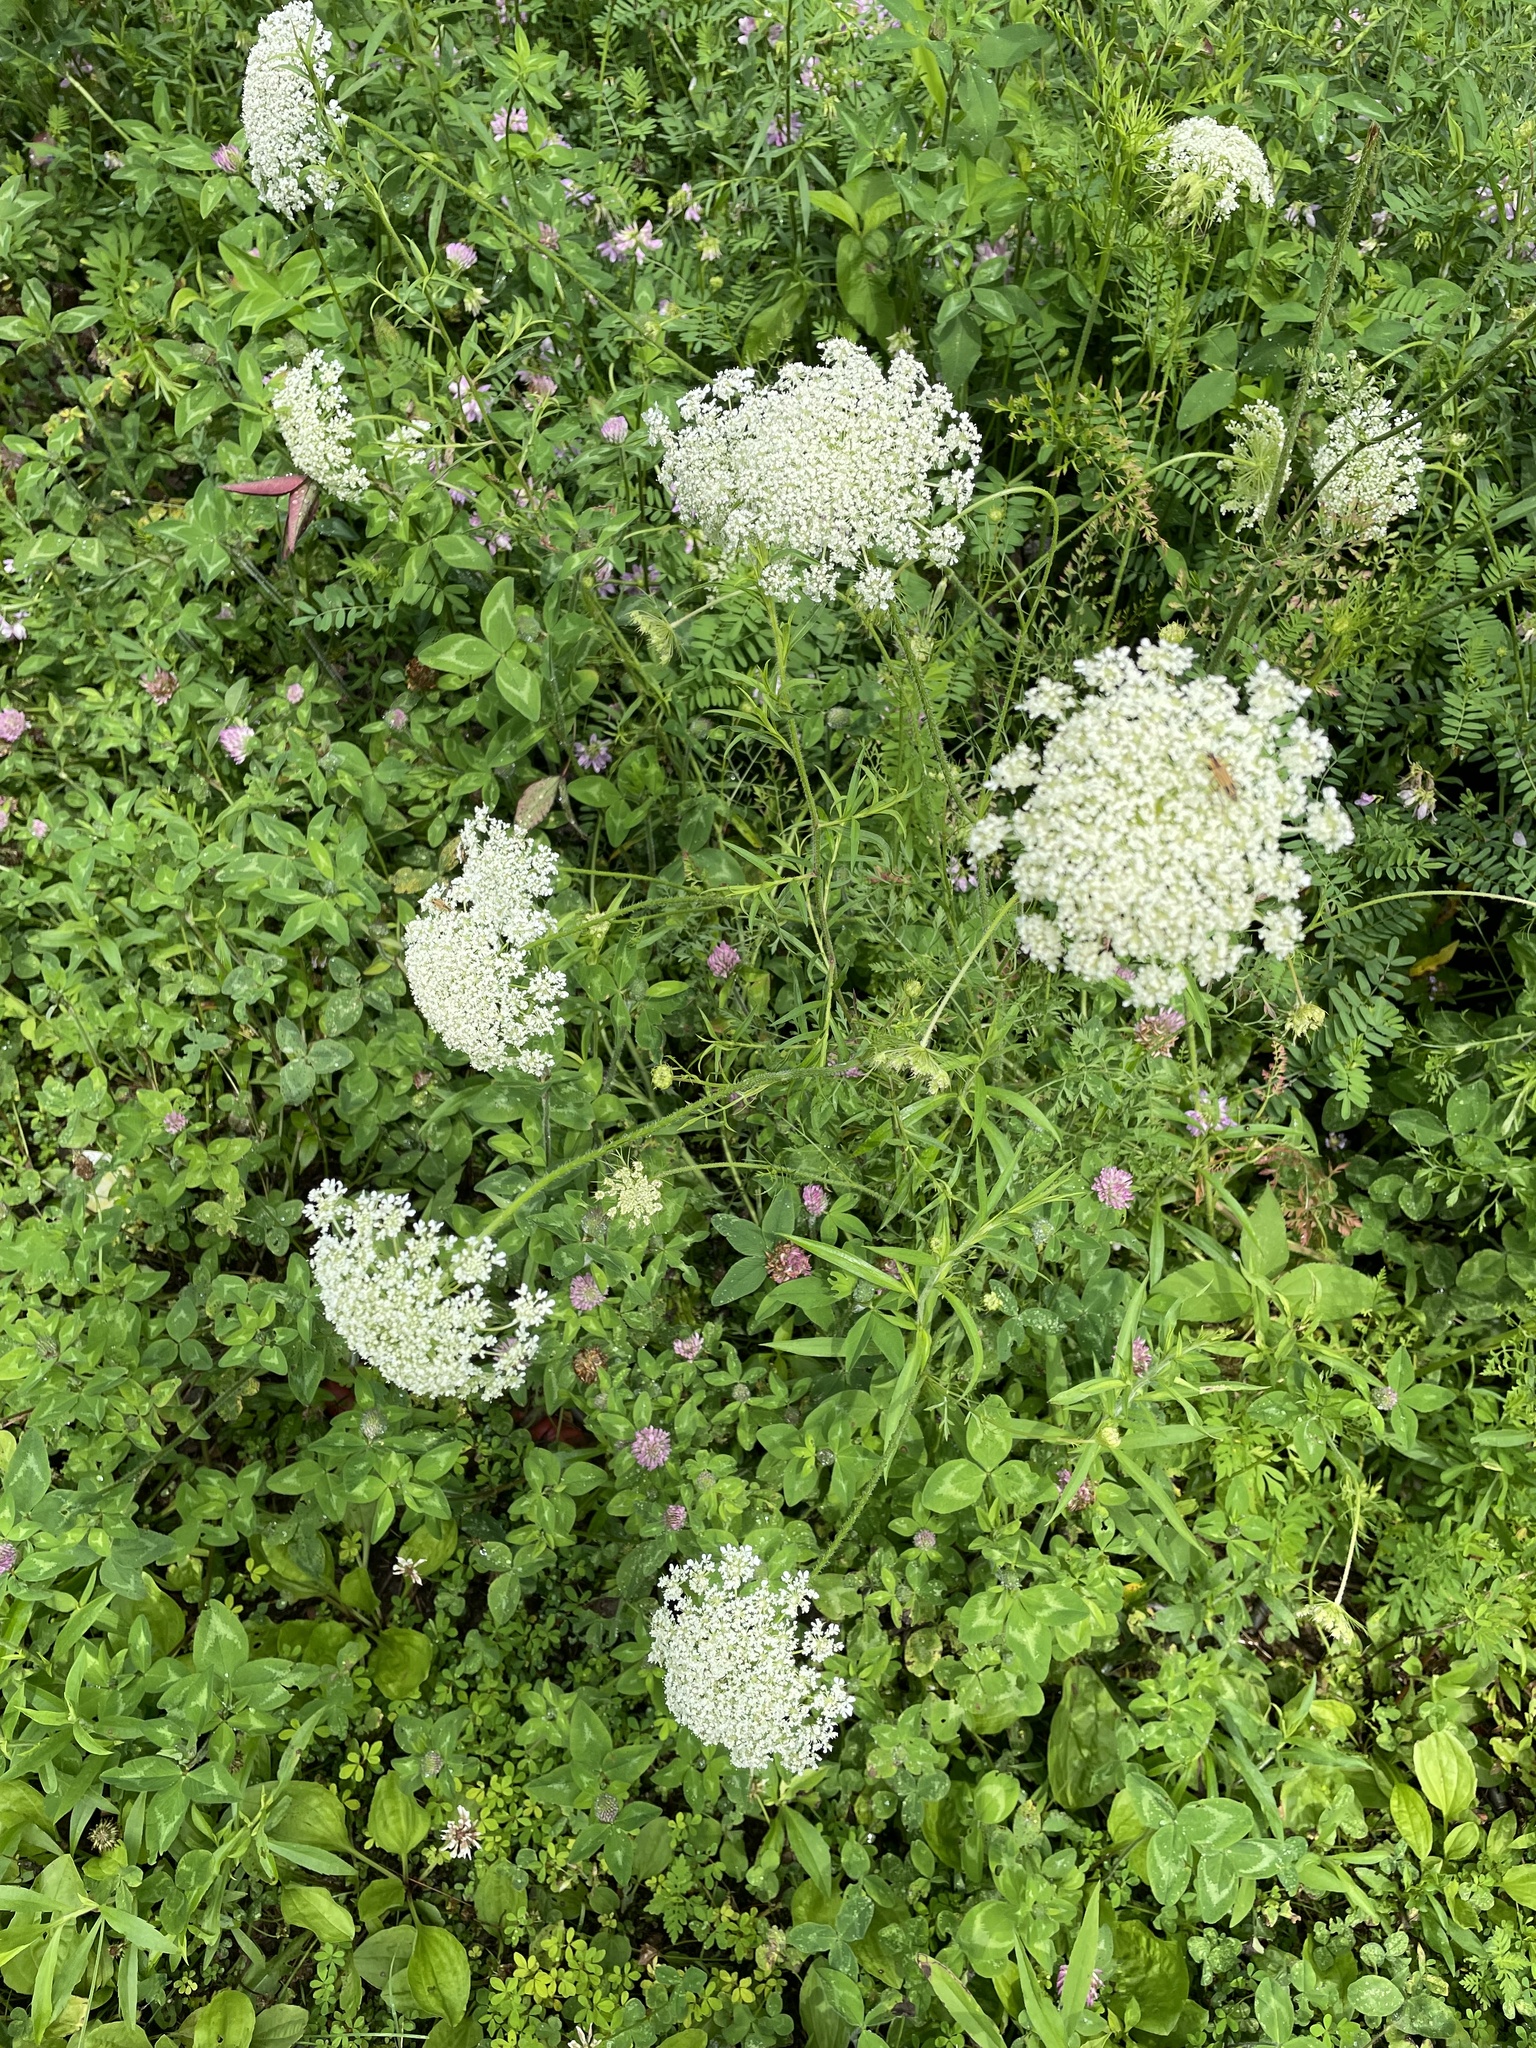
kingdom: Plantae
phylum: Tracheophyta
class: Magnoliopsida
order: Apiales
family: Apiaceae
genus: Daucus
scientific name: Daucus carota
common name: Wild carrot
